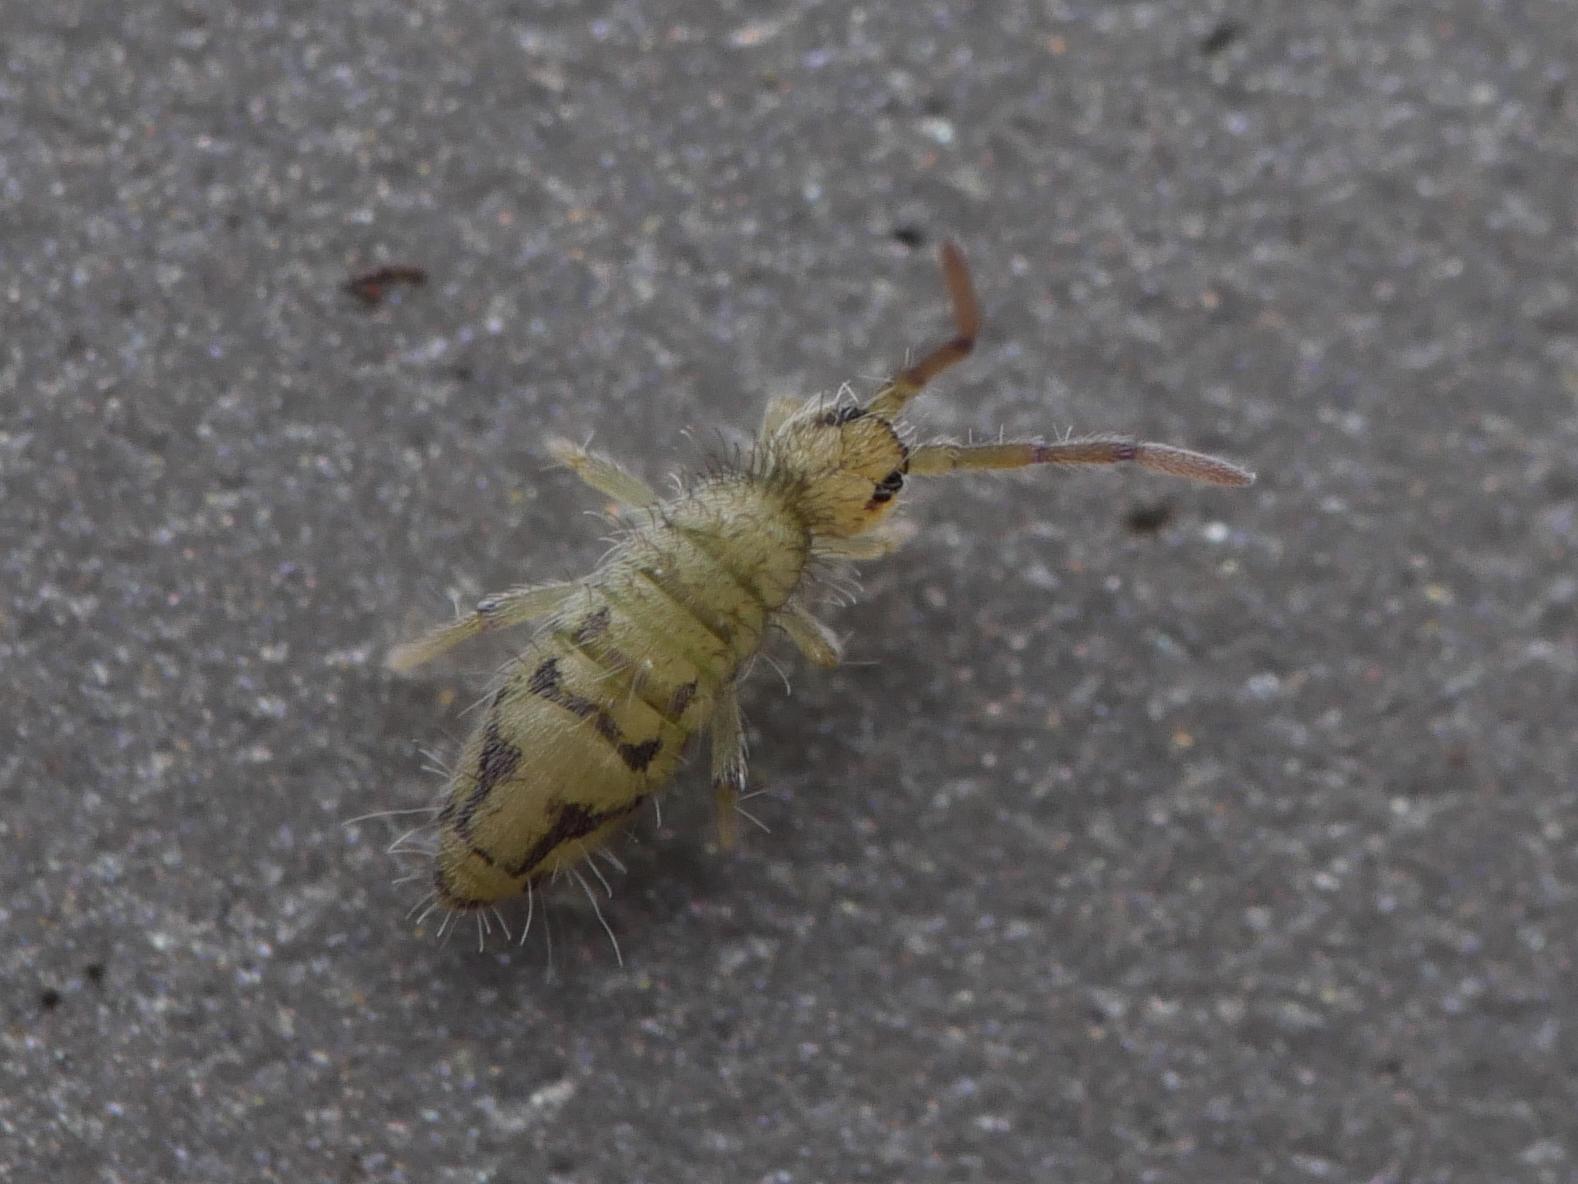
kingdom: Animalia
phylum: Arthropoda
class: Collembola
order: Entomobryomorpha
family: Entomobryidae
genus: Entomobrya
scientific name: Entomobrya nivalis
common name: Cosmopolitan springtail
